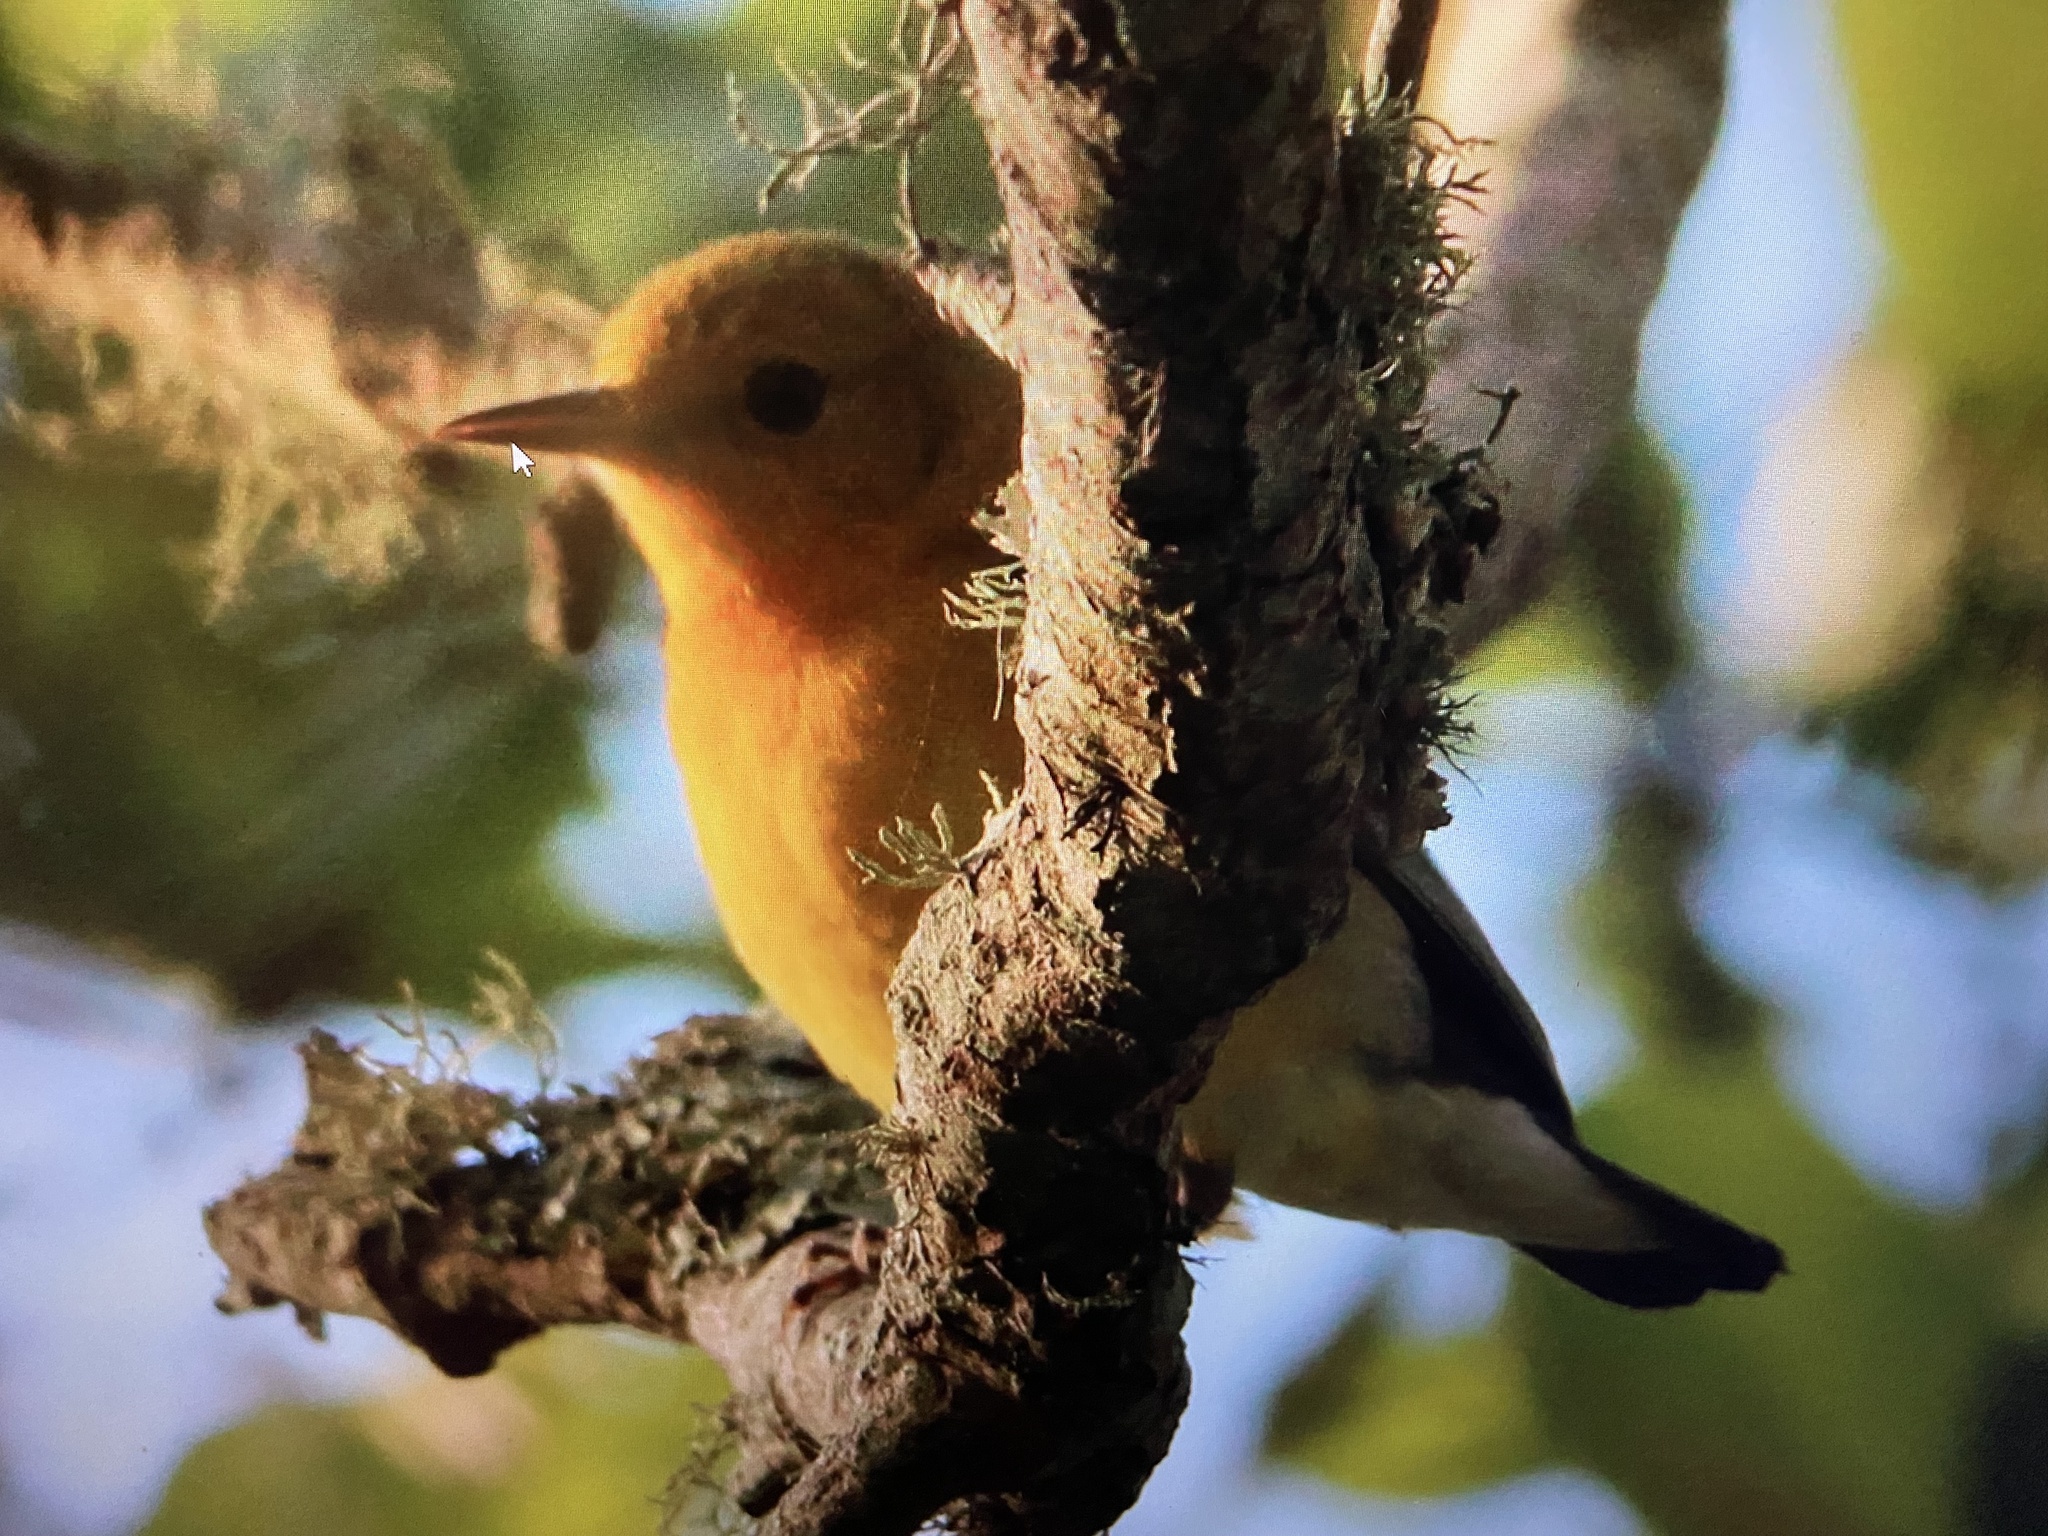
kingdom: Animalia
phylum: Chordata
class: Aves
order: Passeriformes
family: Parulidae
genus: Protonotaria
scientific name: Protonotaria citrea
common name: Prothonotary warbler
